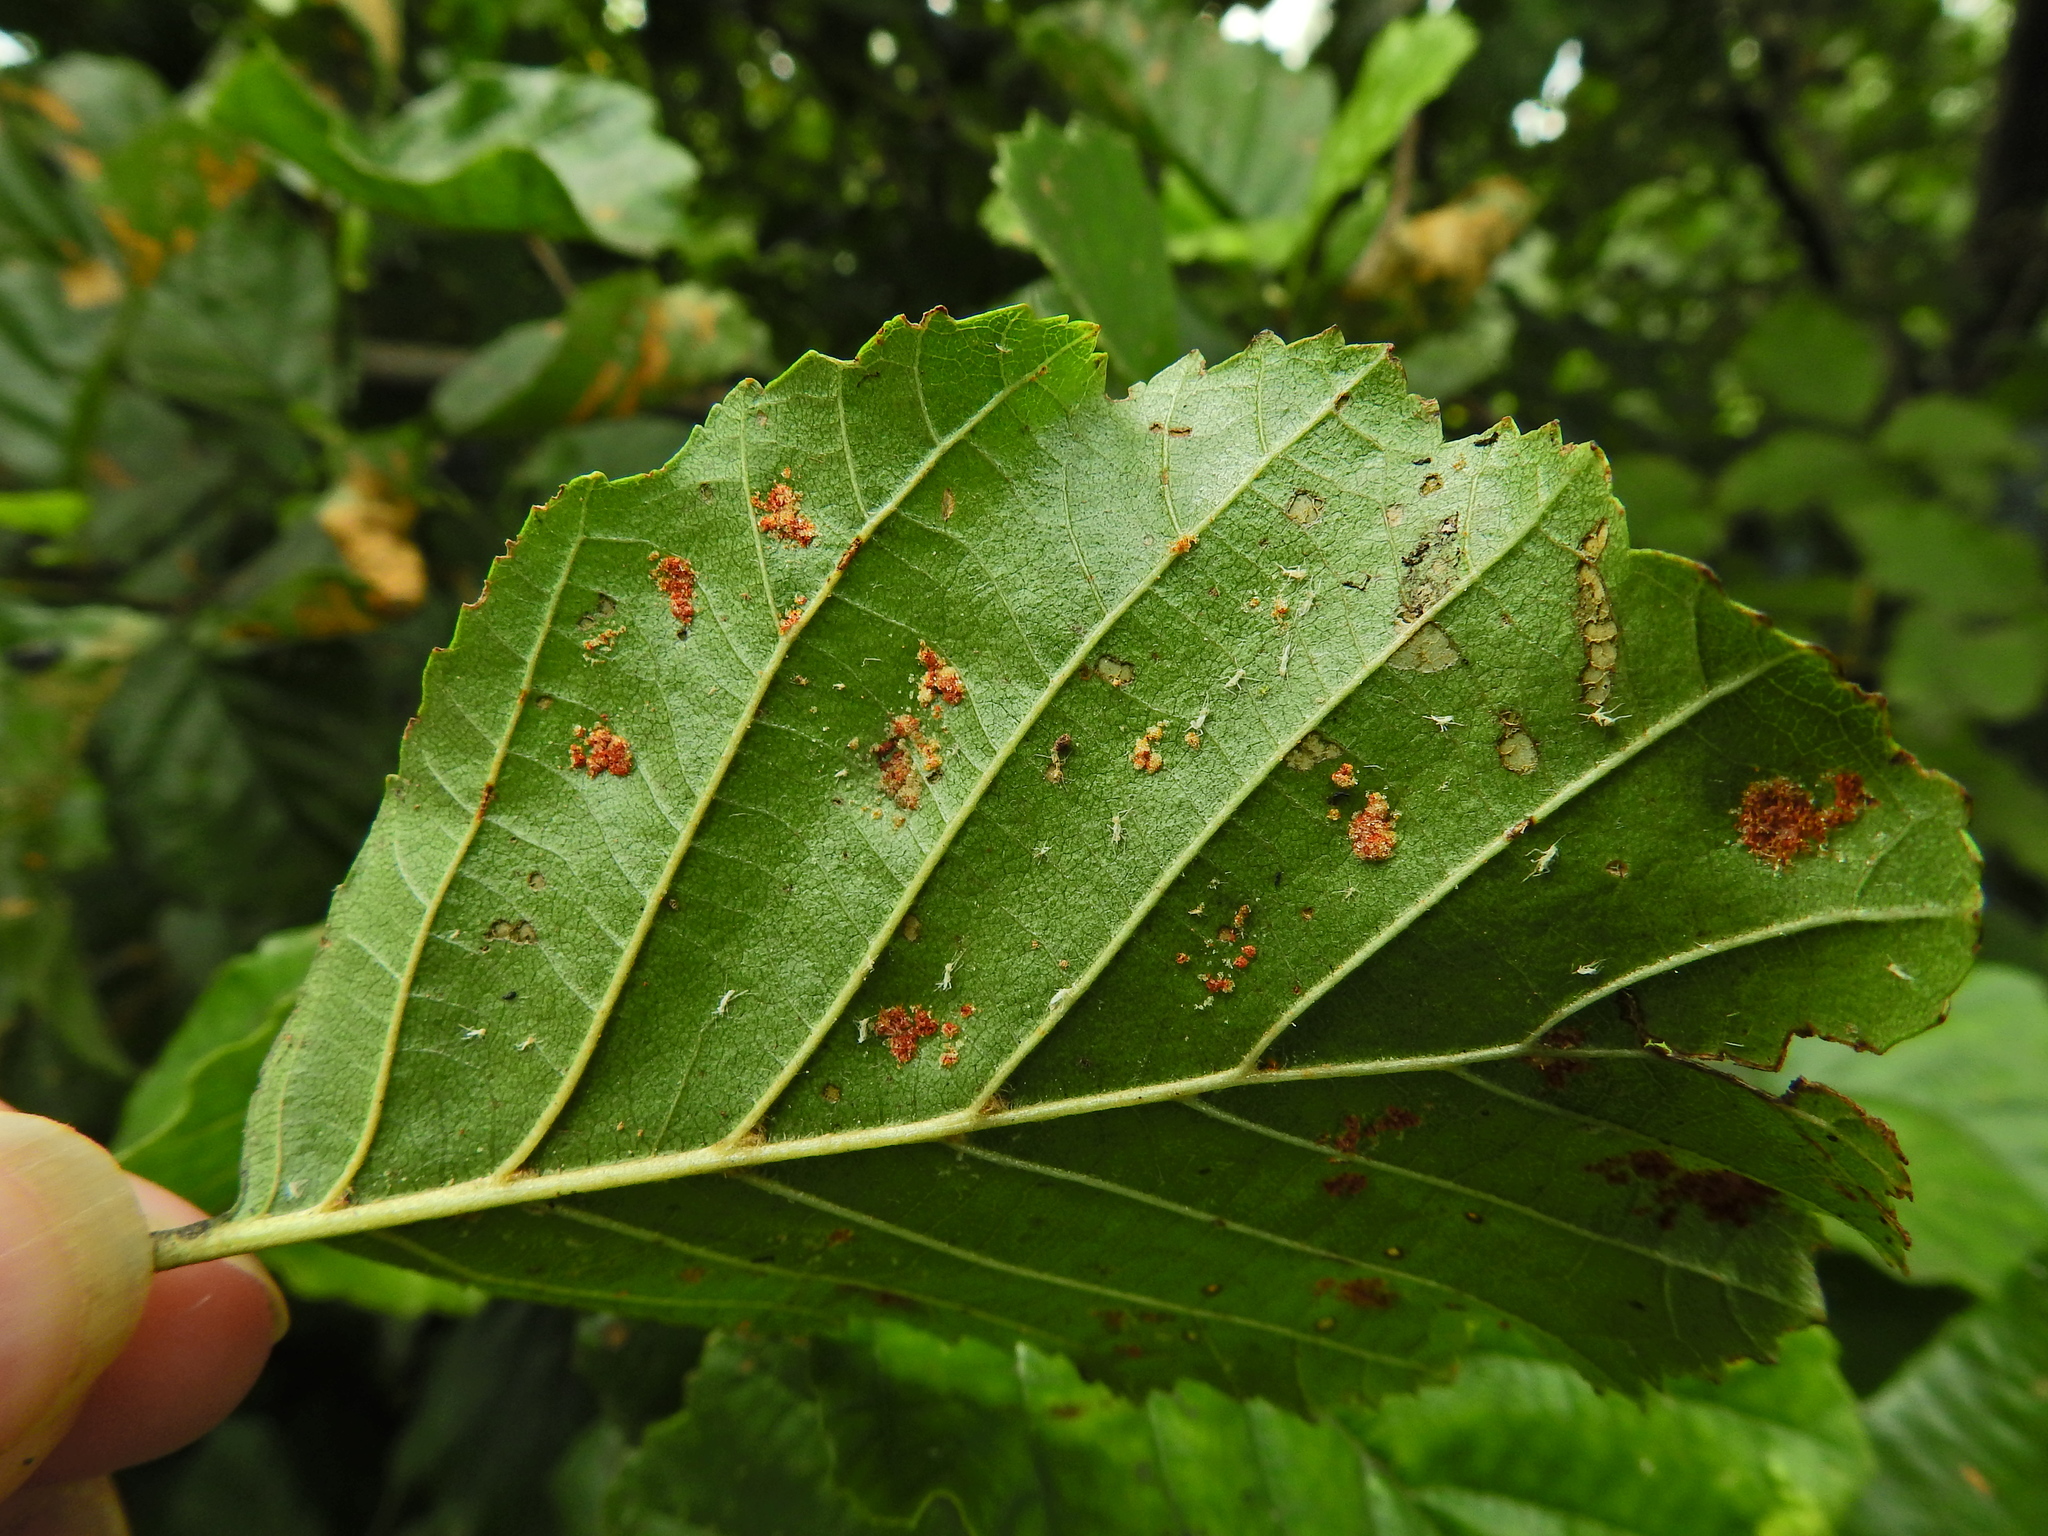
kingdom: Animalia
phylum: Arthropoda
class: Arachnida
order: Trombidiformes
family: Eriophyidae
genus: Acalitus
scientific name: Acalitus brevitarsus
